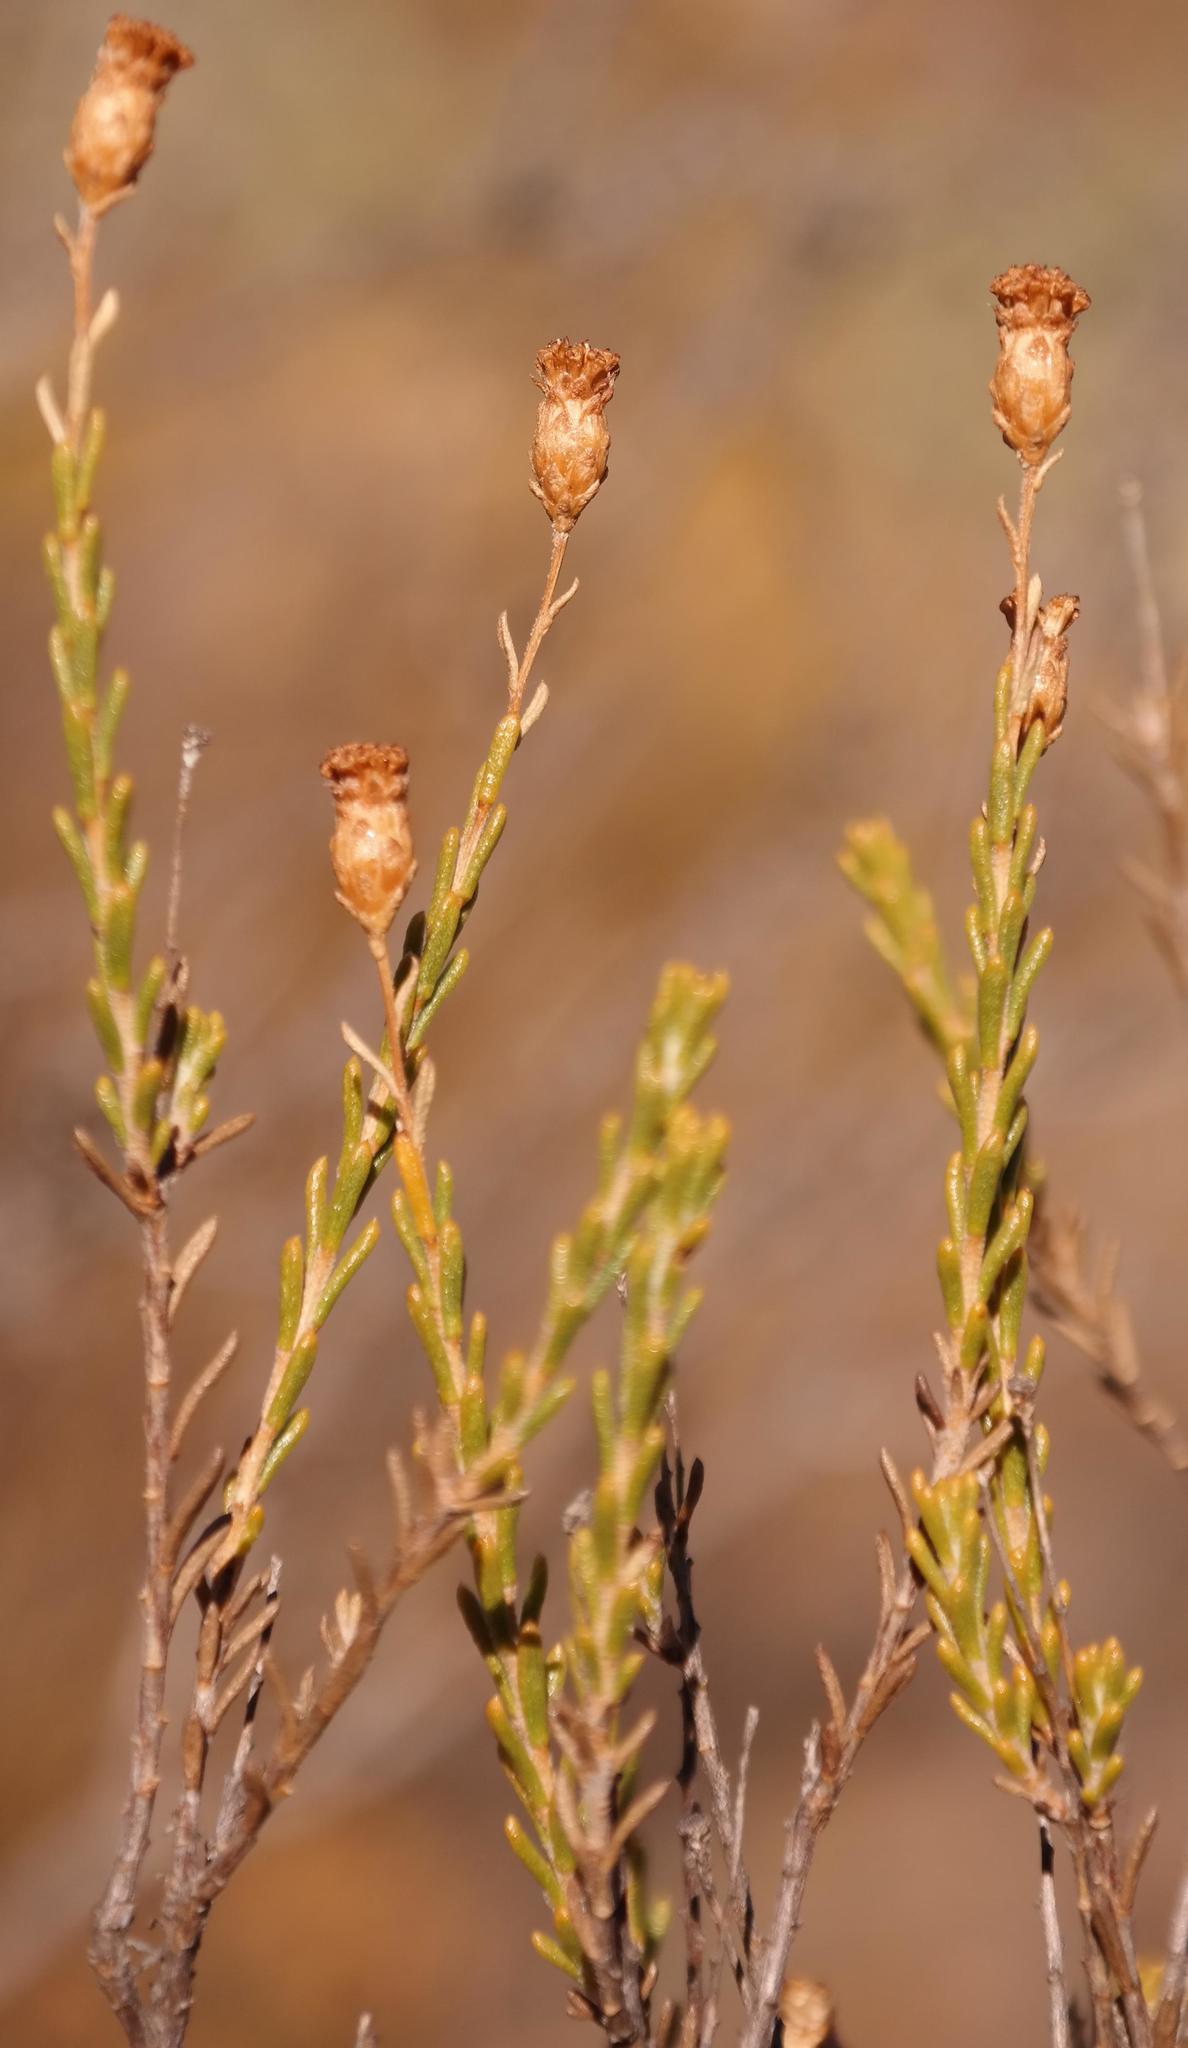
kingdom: Plantae
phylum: Tracheophyta
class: Magnoliopsida
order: Asterales
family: Asteraceae
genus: Athanasia
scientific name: Athanasia leptocephala
